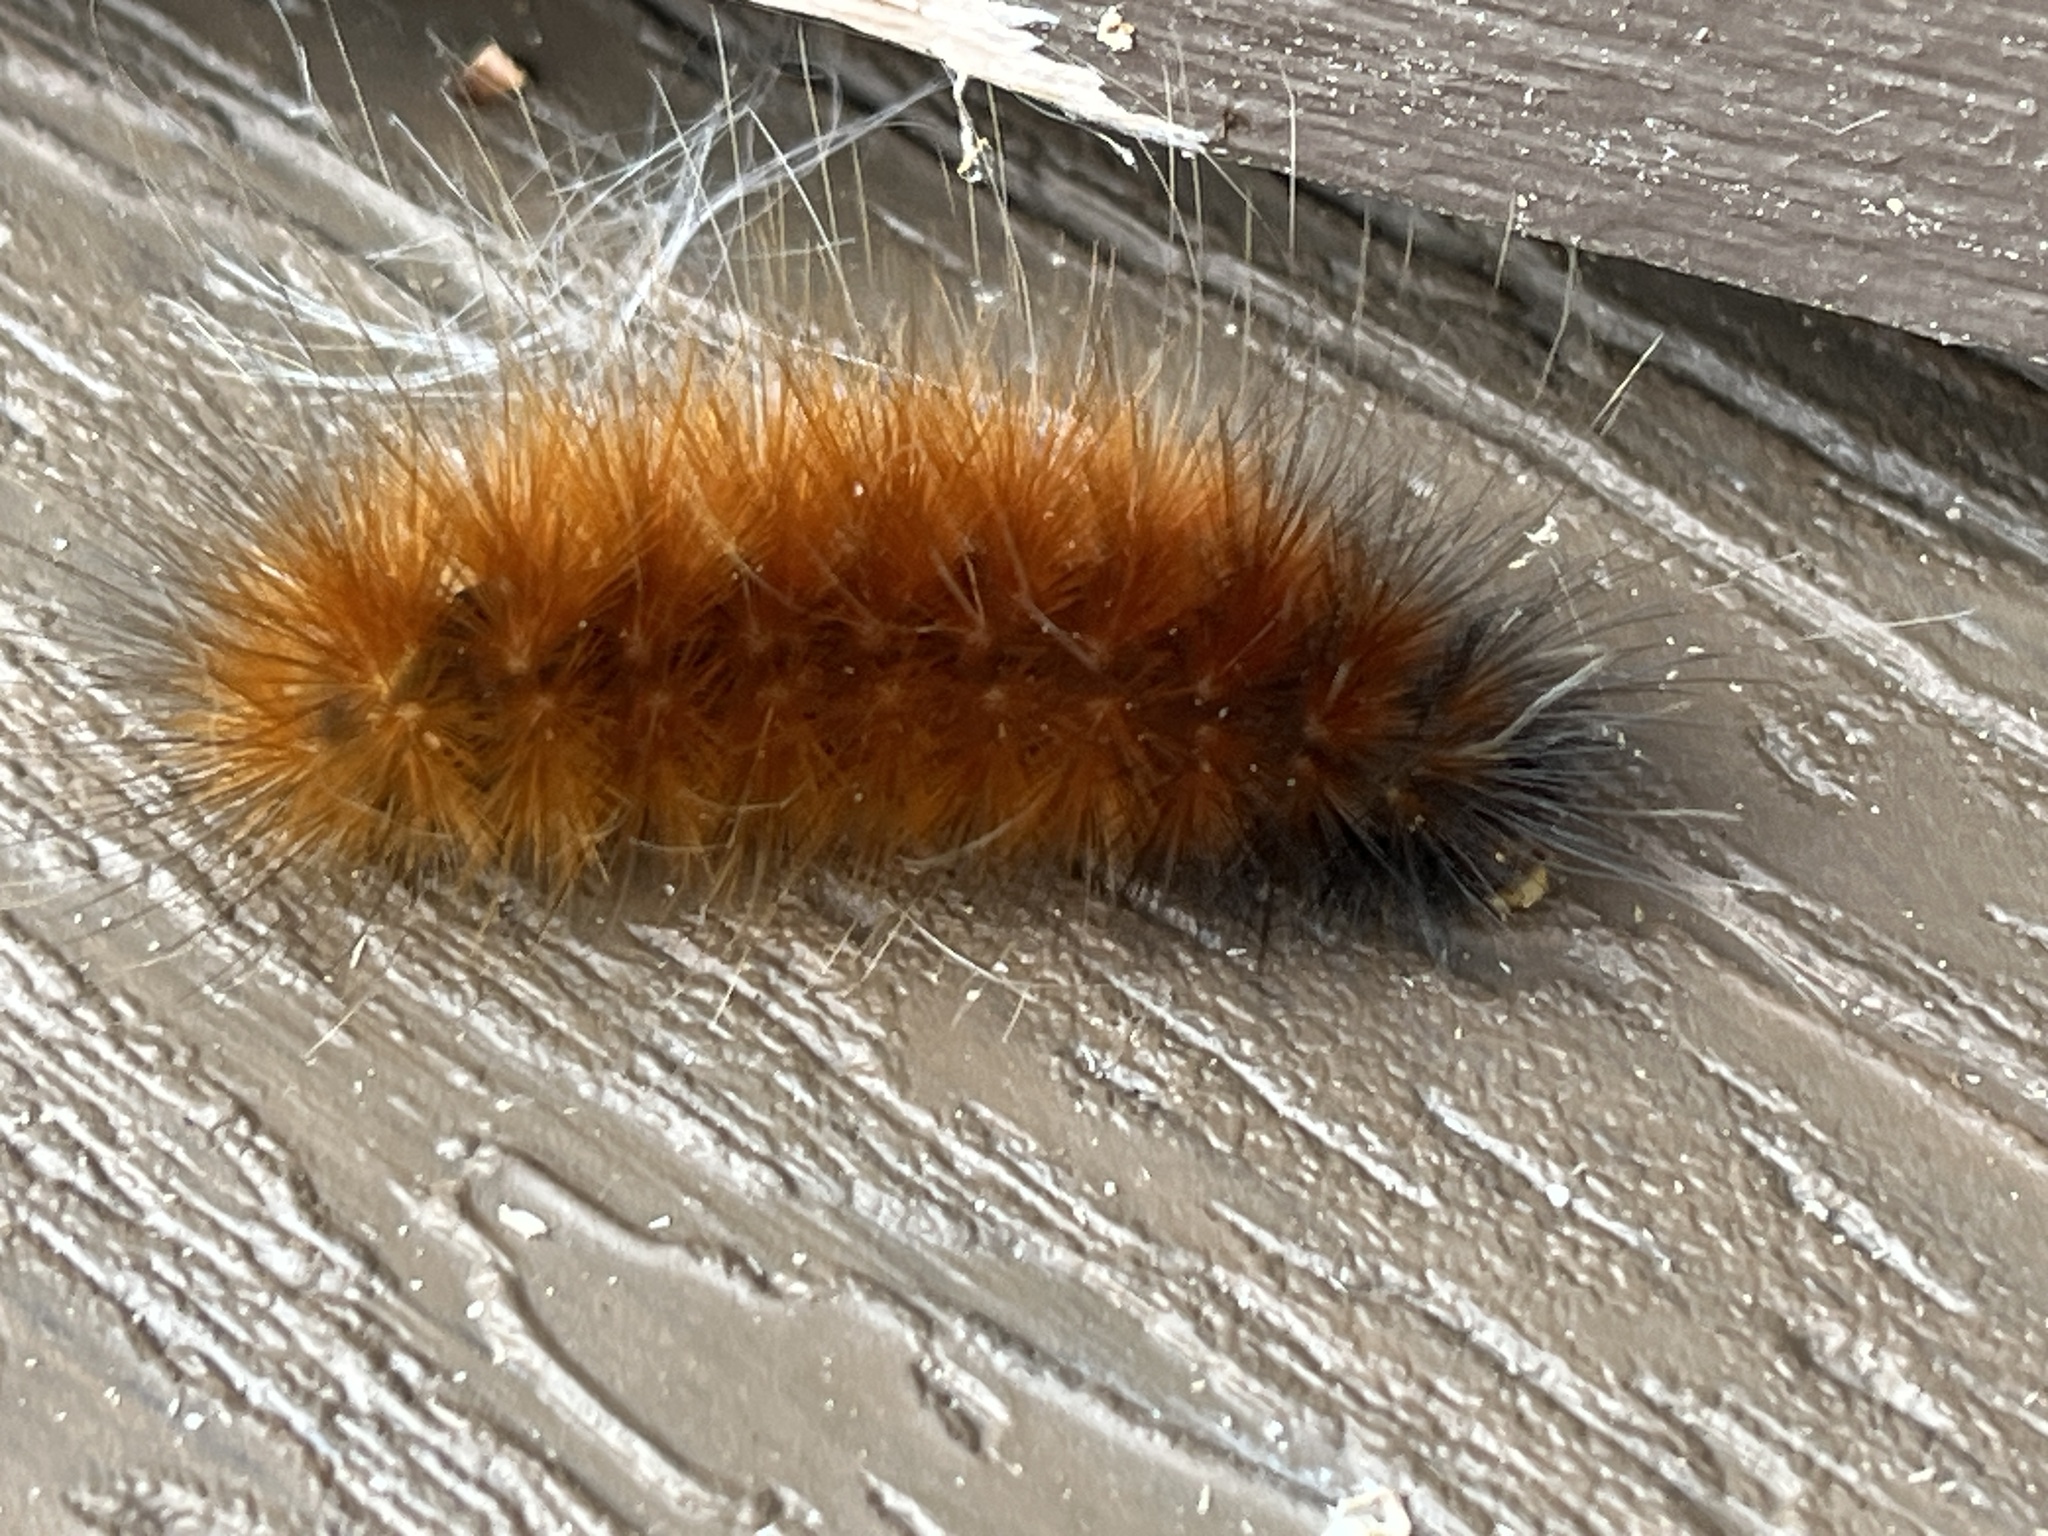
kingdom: Animalia
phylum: Arthropoda
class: Insecta
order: Lepidoptera
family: Erebidae
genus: Spilosoma
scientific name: Spilosoma virginica
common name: Virginia tiger moth
